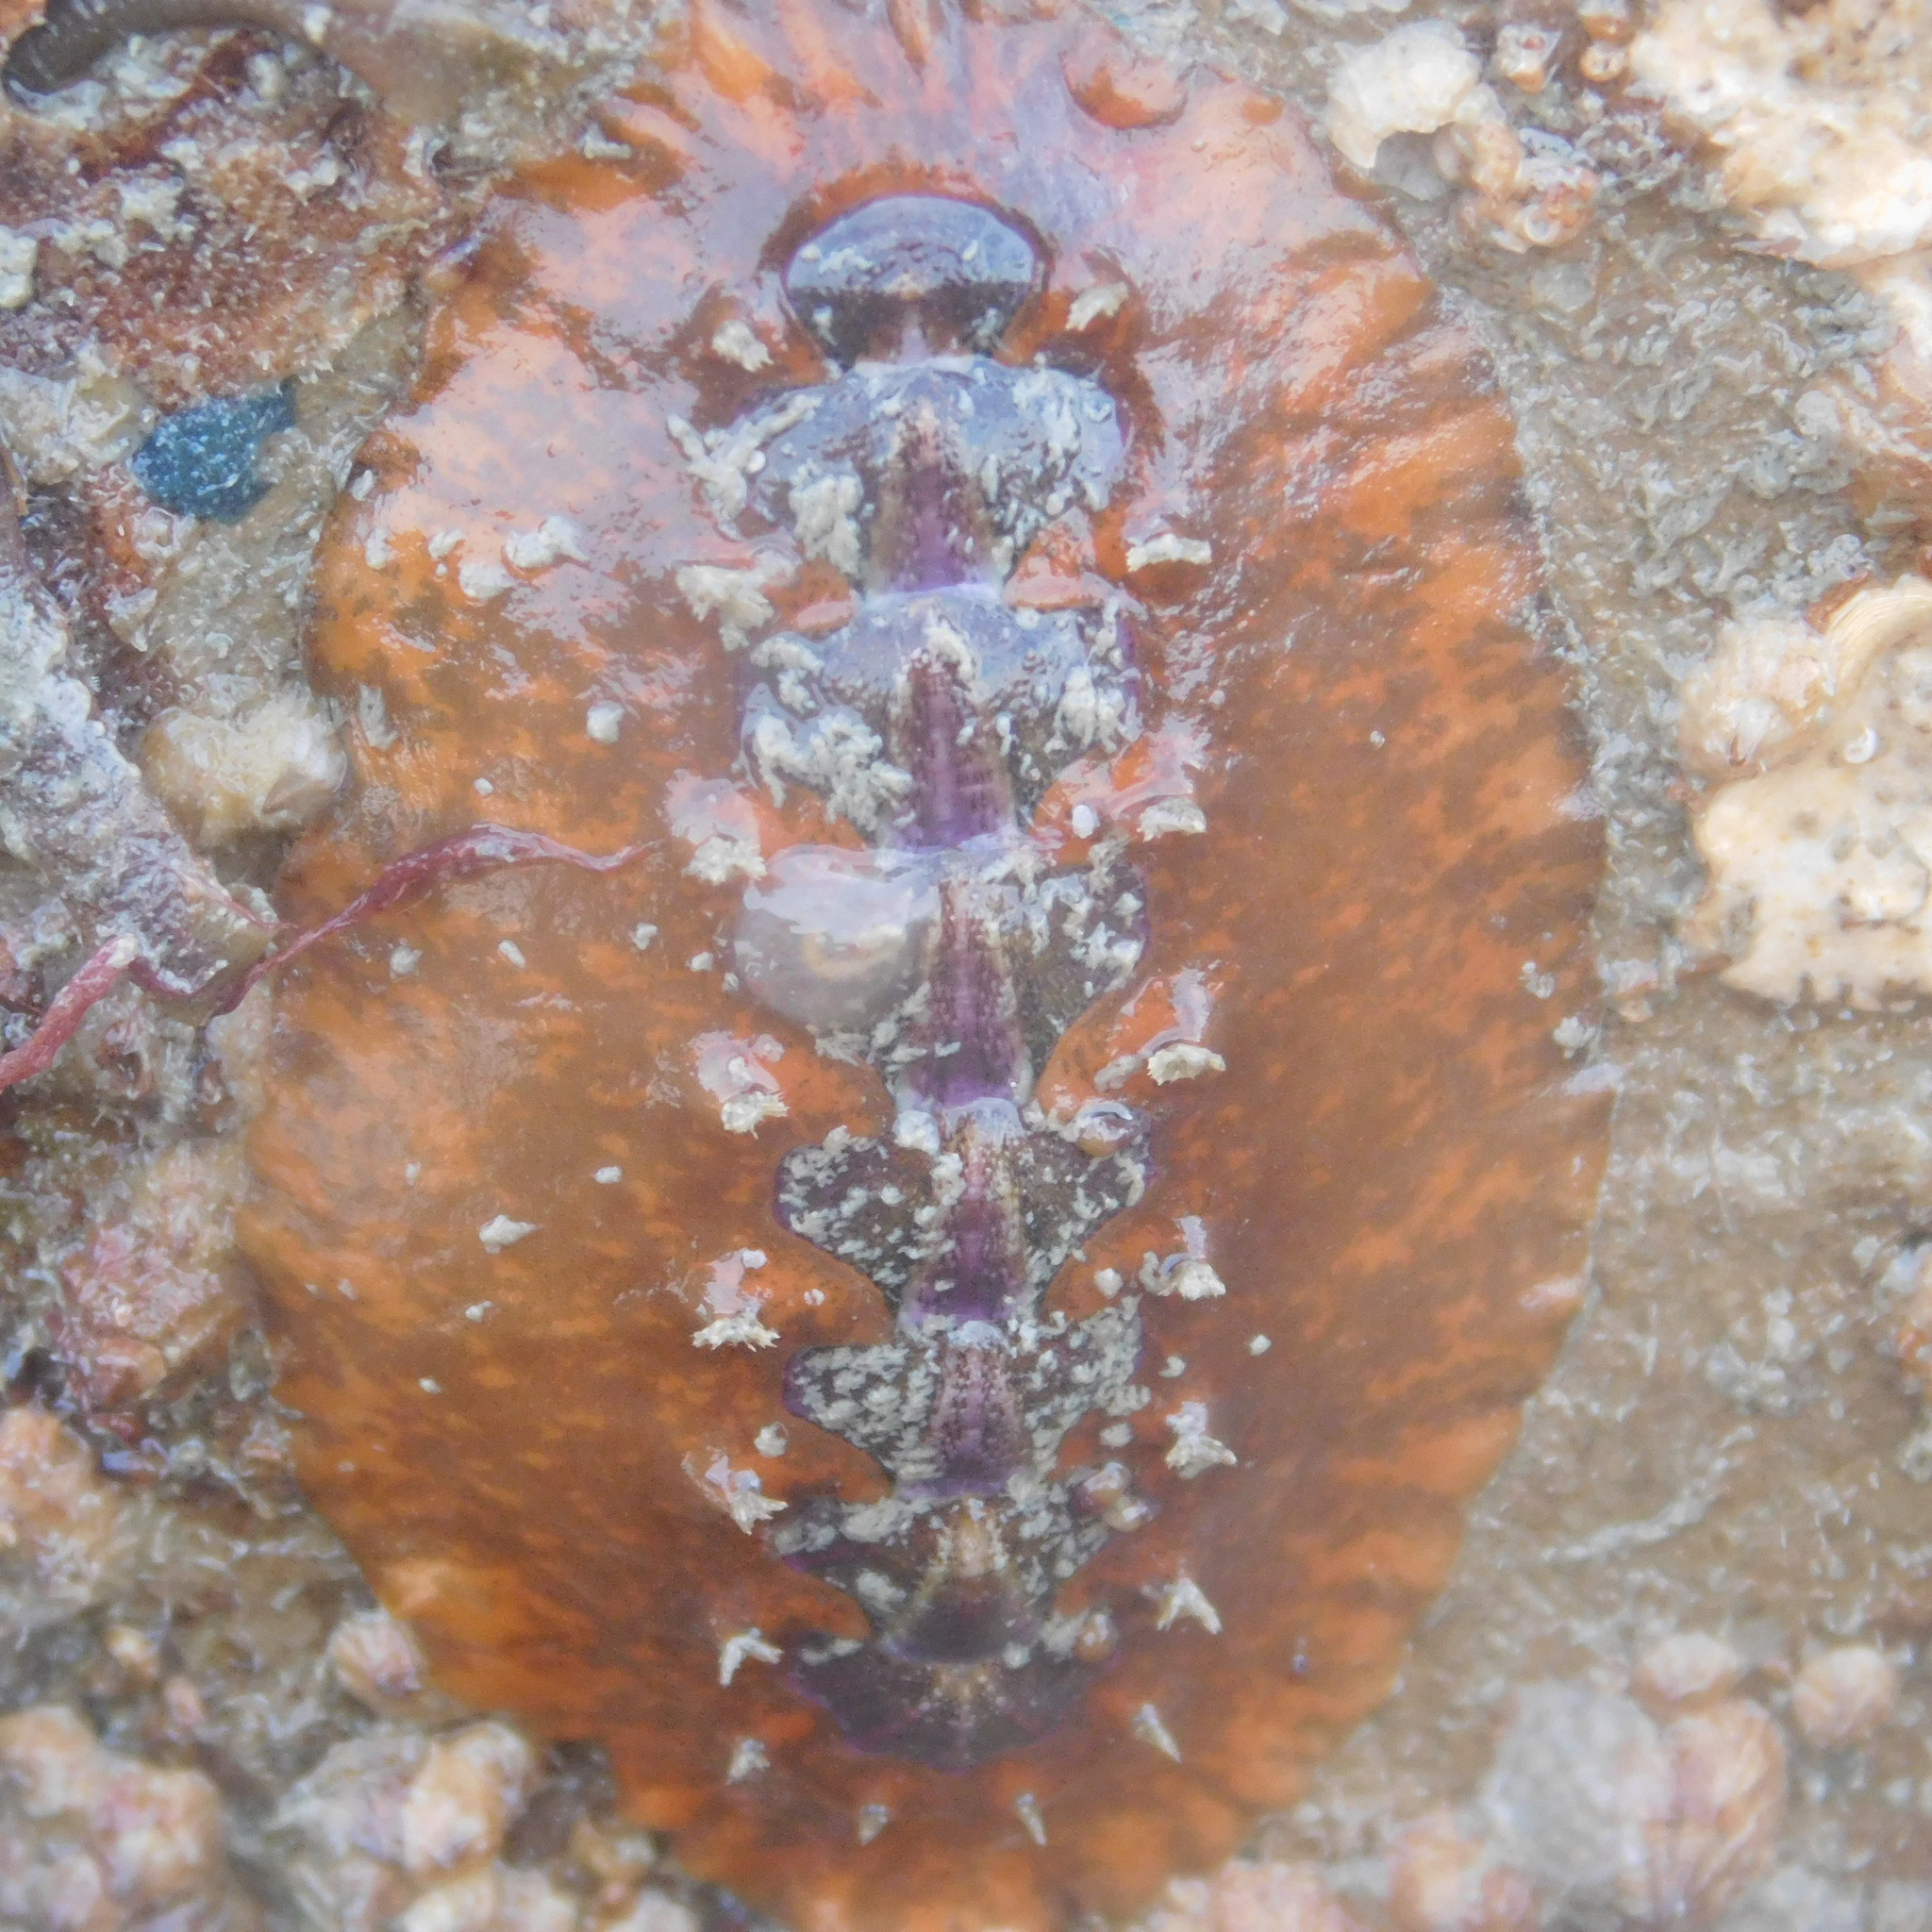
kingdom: Animalia
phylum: Mollusca
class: Polyplacophora
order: Chitonida
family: Acanthochitonidae
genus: Notoplax
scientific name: Notoplax violacea
